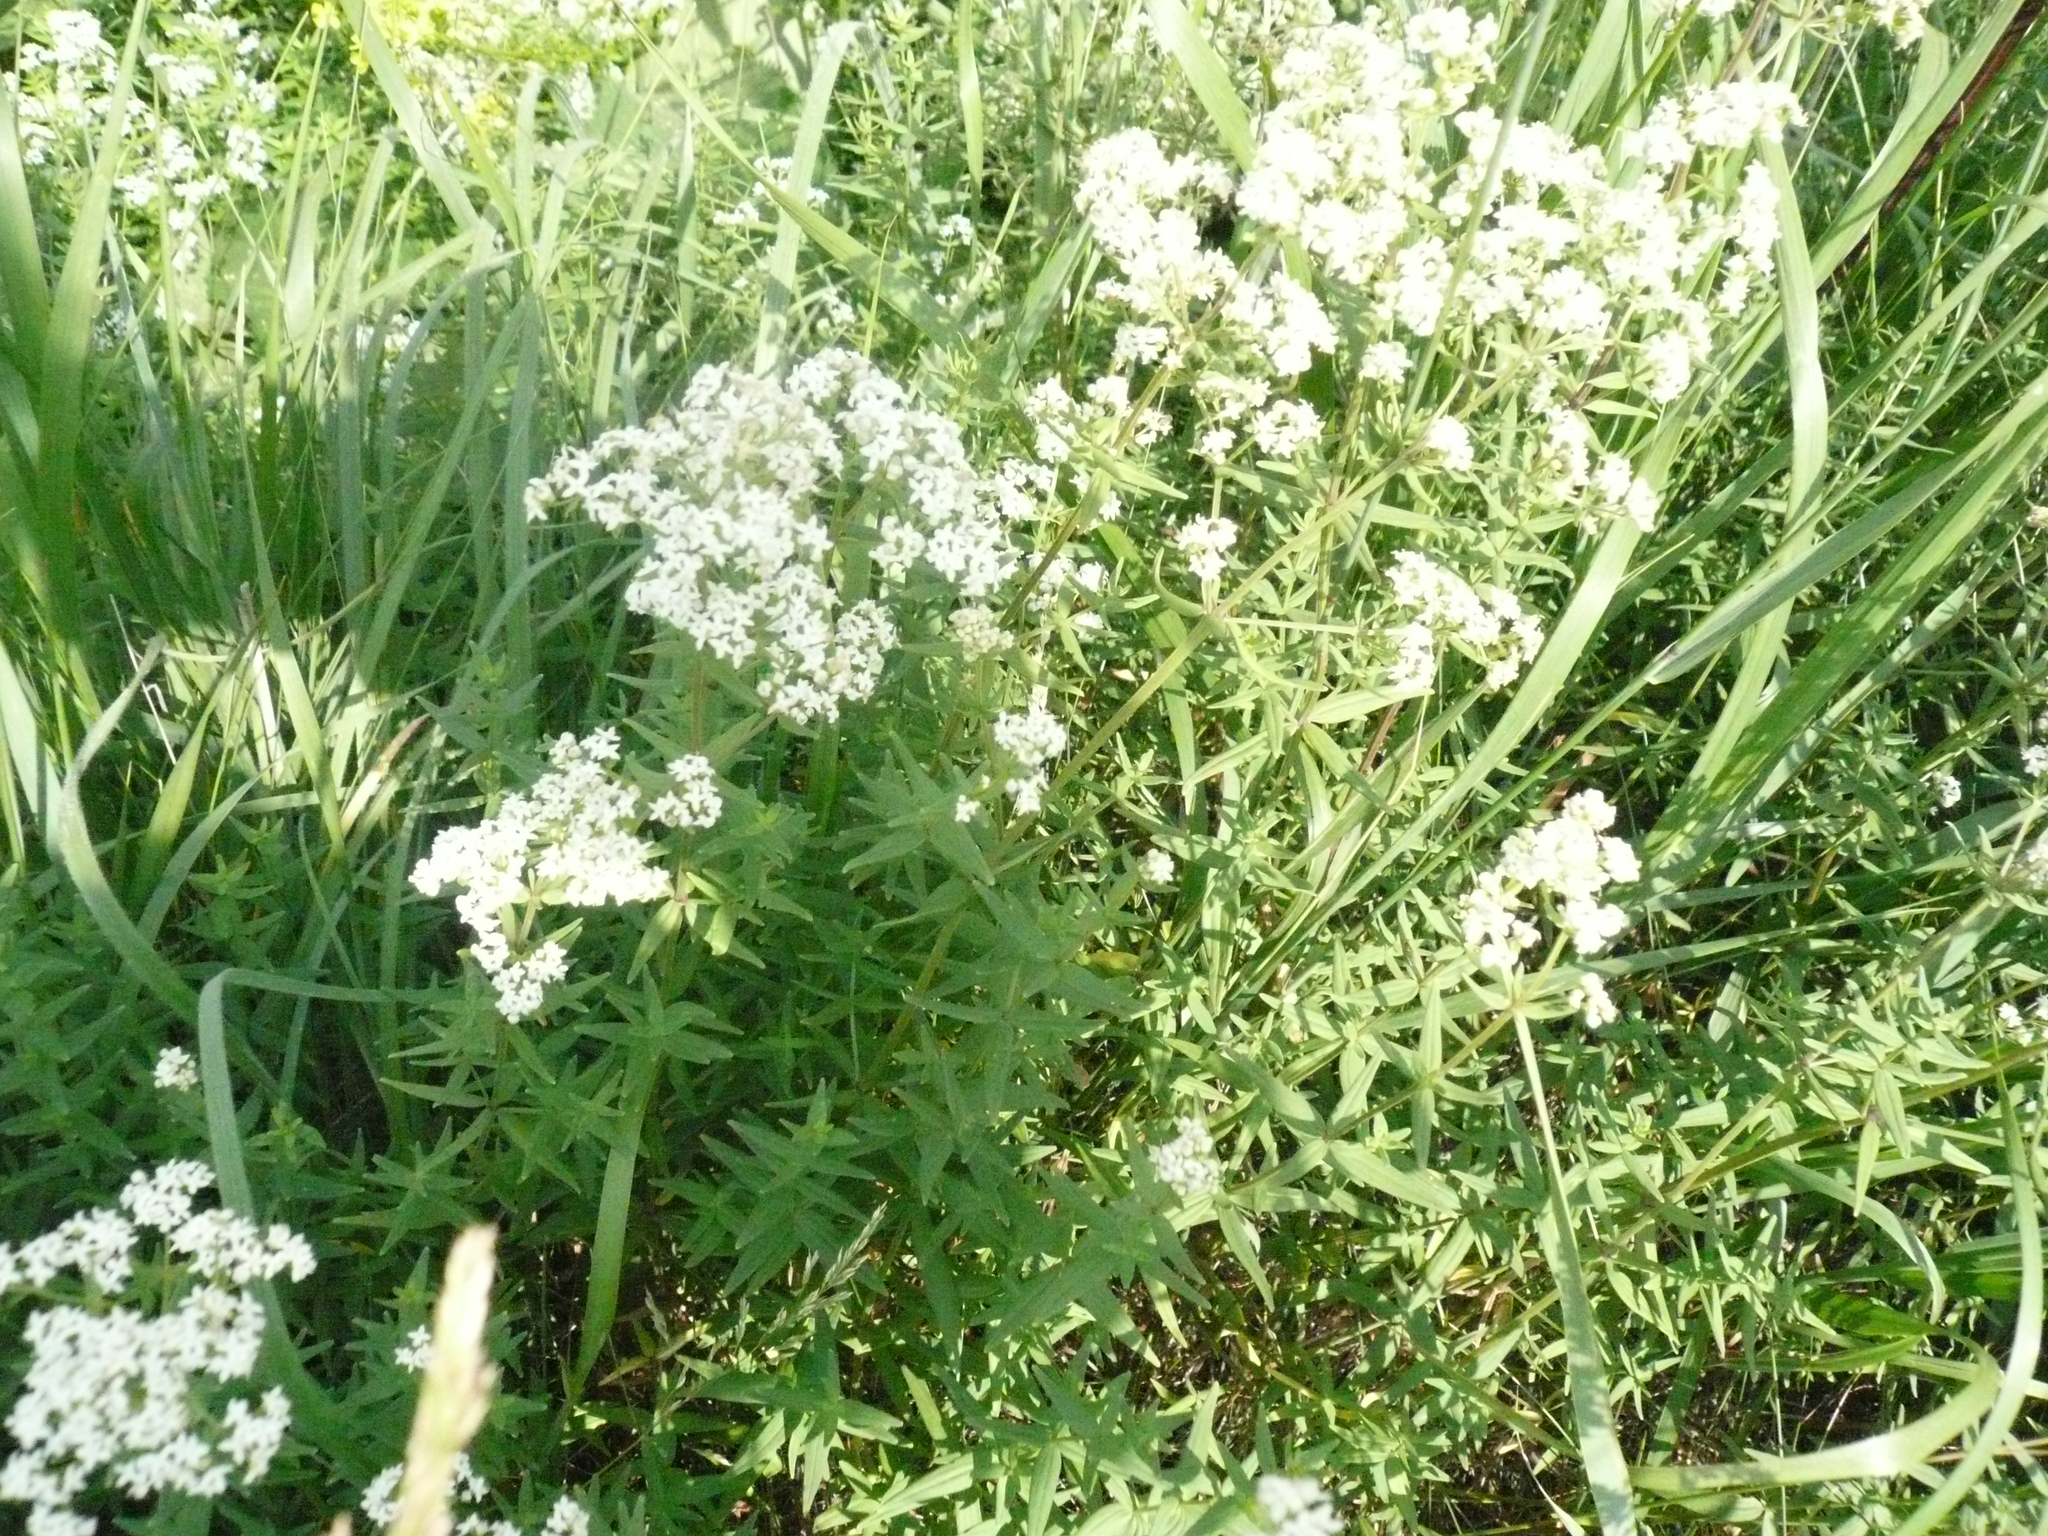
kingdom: Plantae
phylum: Tracheophyta
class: Magnoliopsida
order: Gentianales
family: Rubiaceae
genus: Galium
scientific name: Galium boreale
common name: Northern bedstraw
